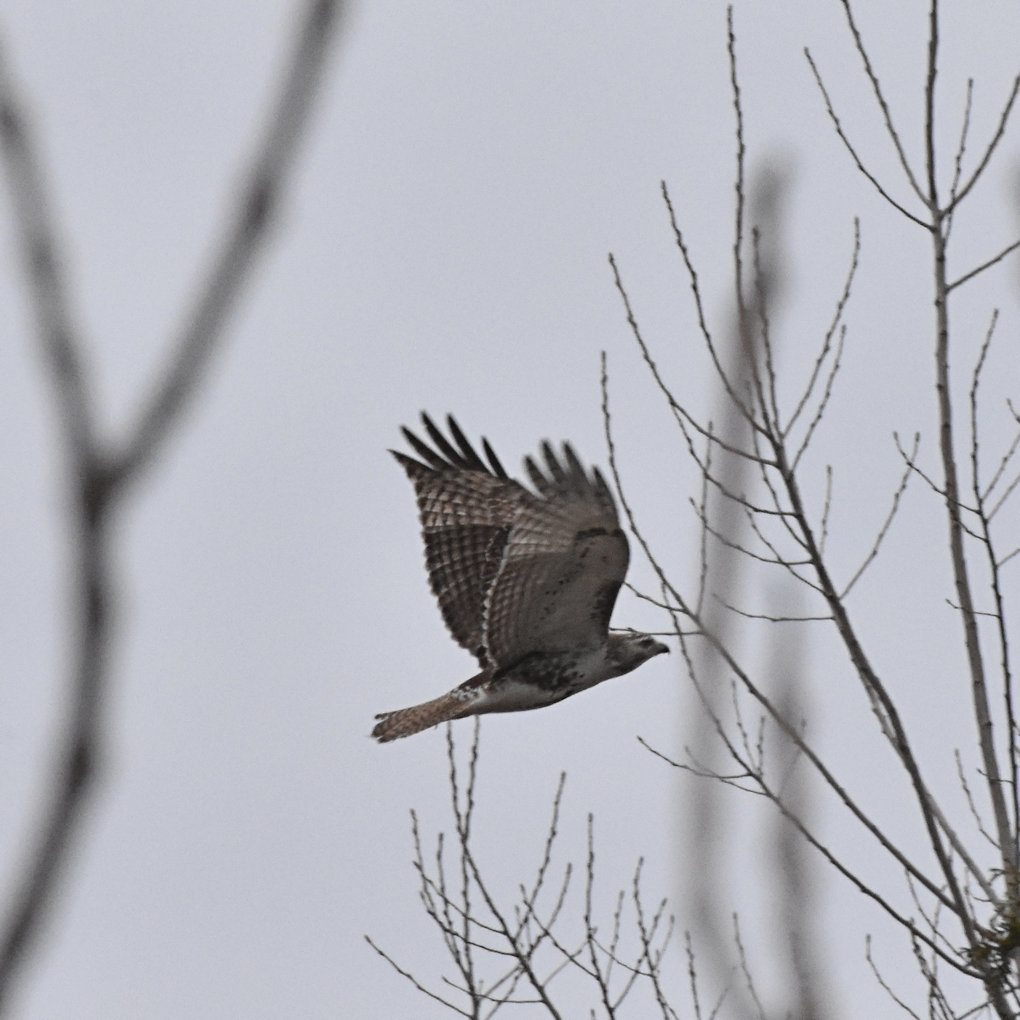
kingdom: Animalia
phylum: Chordata
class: Aves
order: Accipitriformes
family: Accipitridae
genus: Buteo
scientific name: Buteo jamaicensis
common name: Red-tailed hawk
